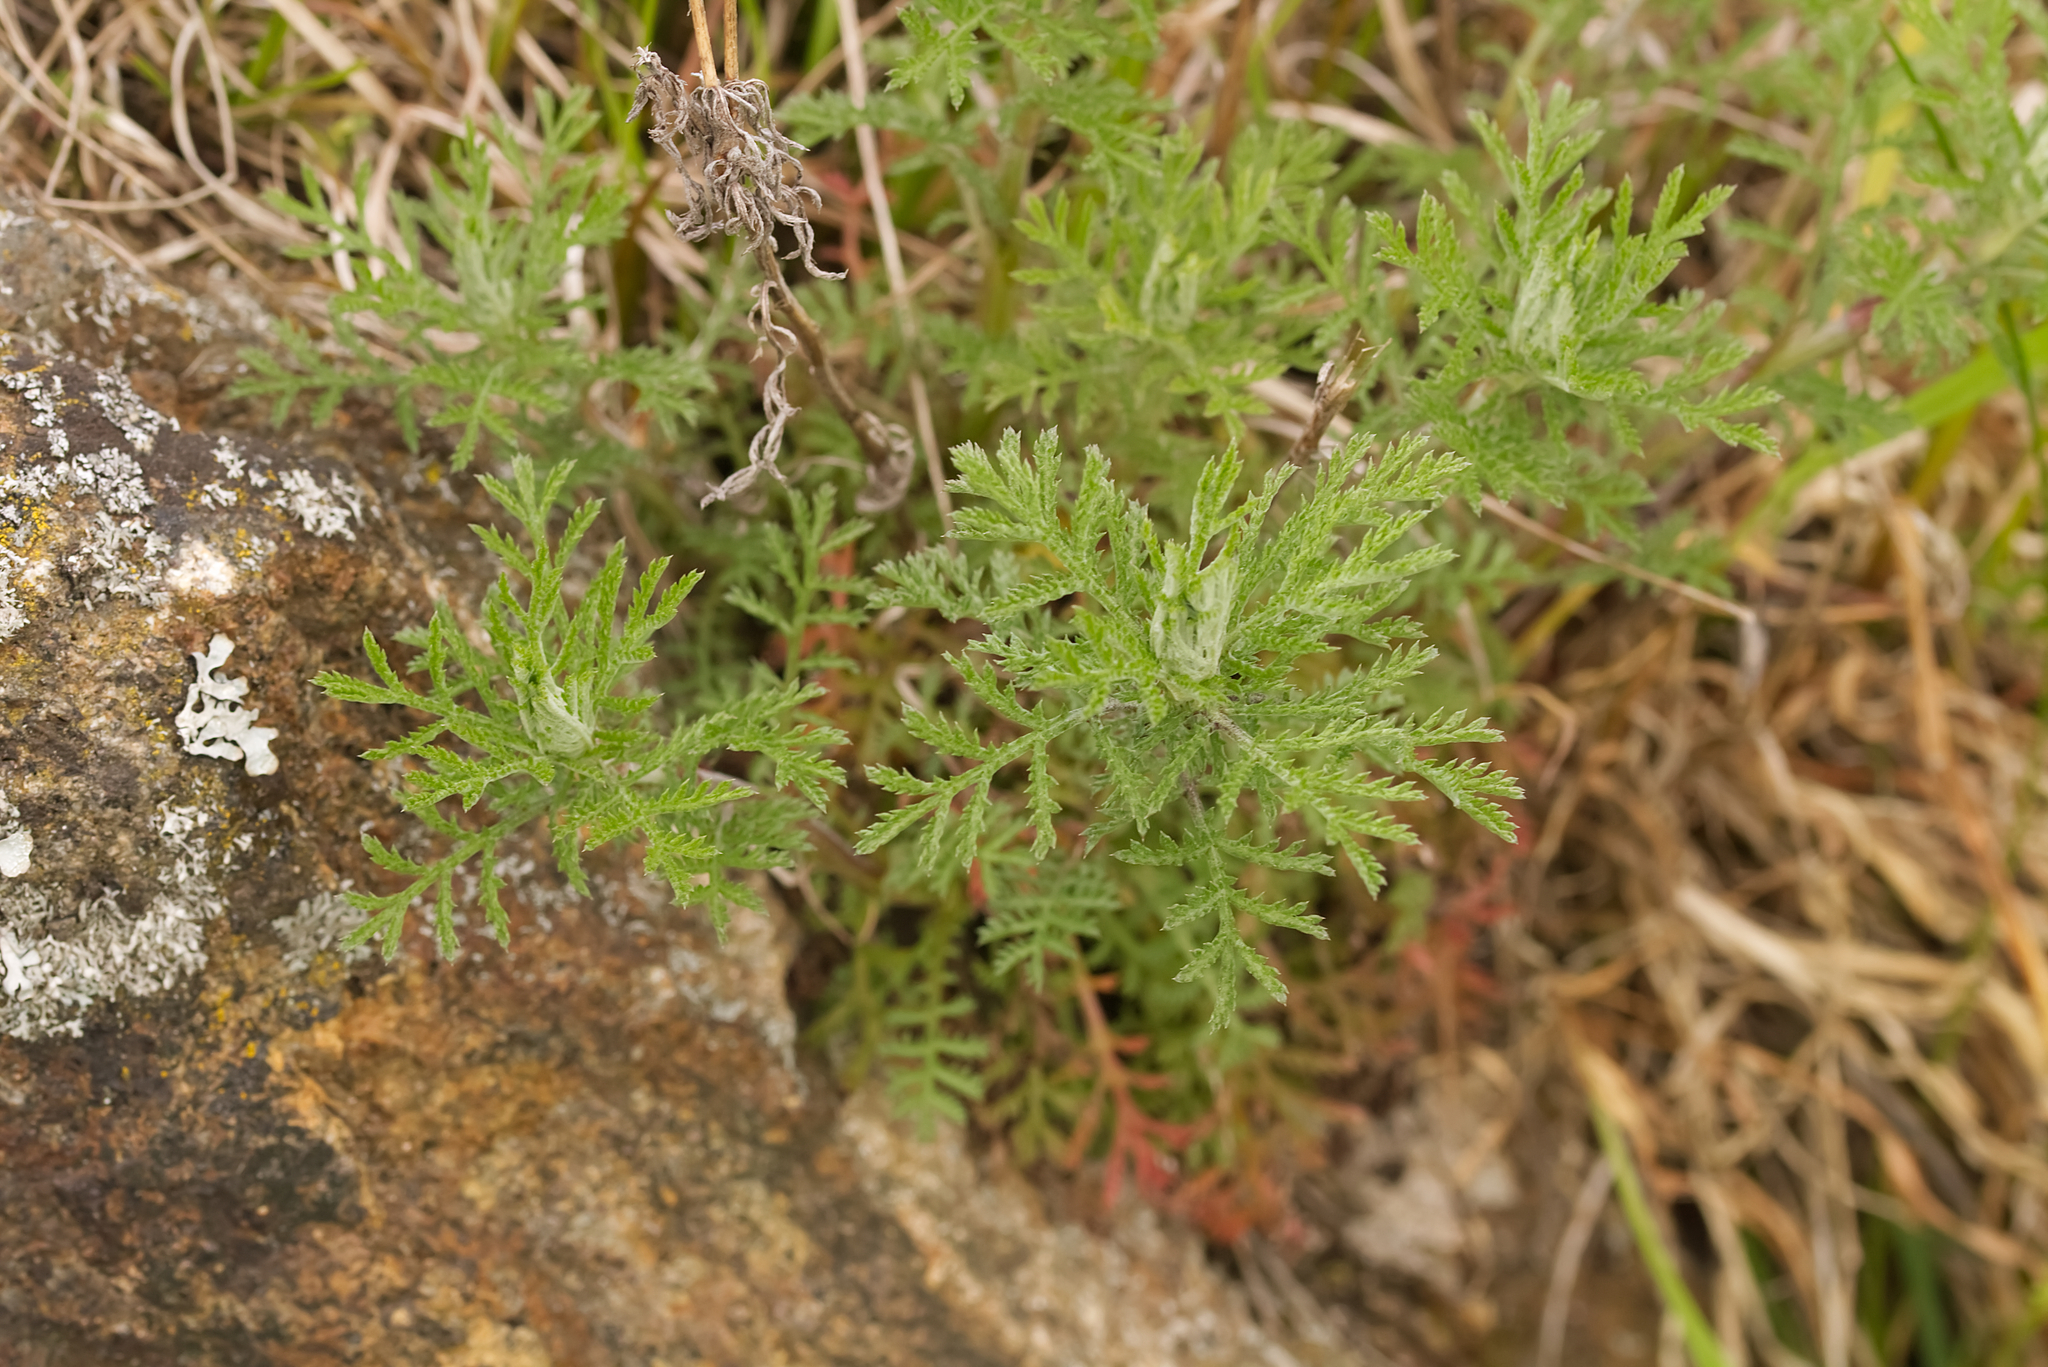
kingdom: Plantae
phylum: Tracheophyta
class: Magnoliopsida
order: Asterales
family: Asteraceae
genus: Cota
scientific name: Cota tinctoria
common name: Golden chamomile
